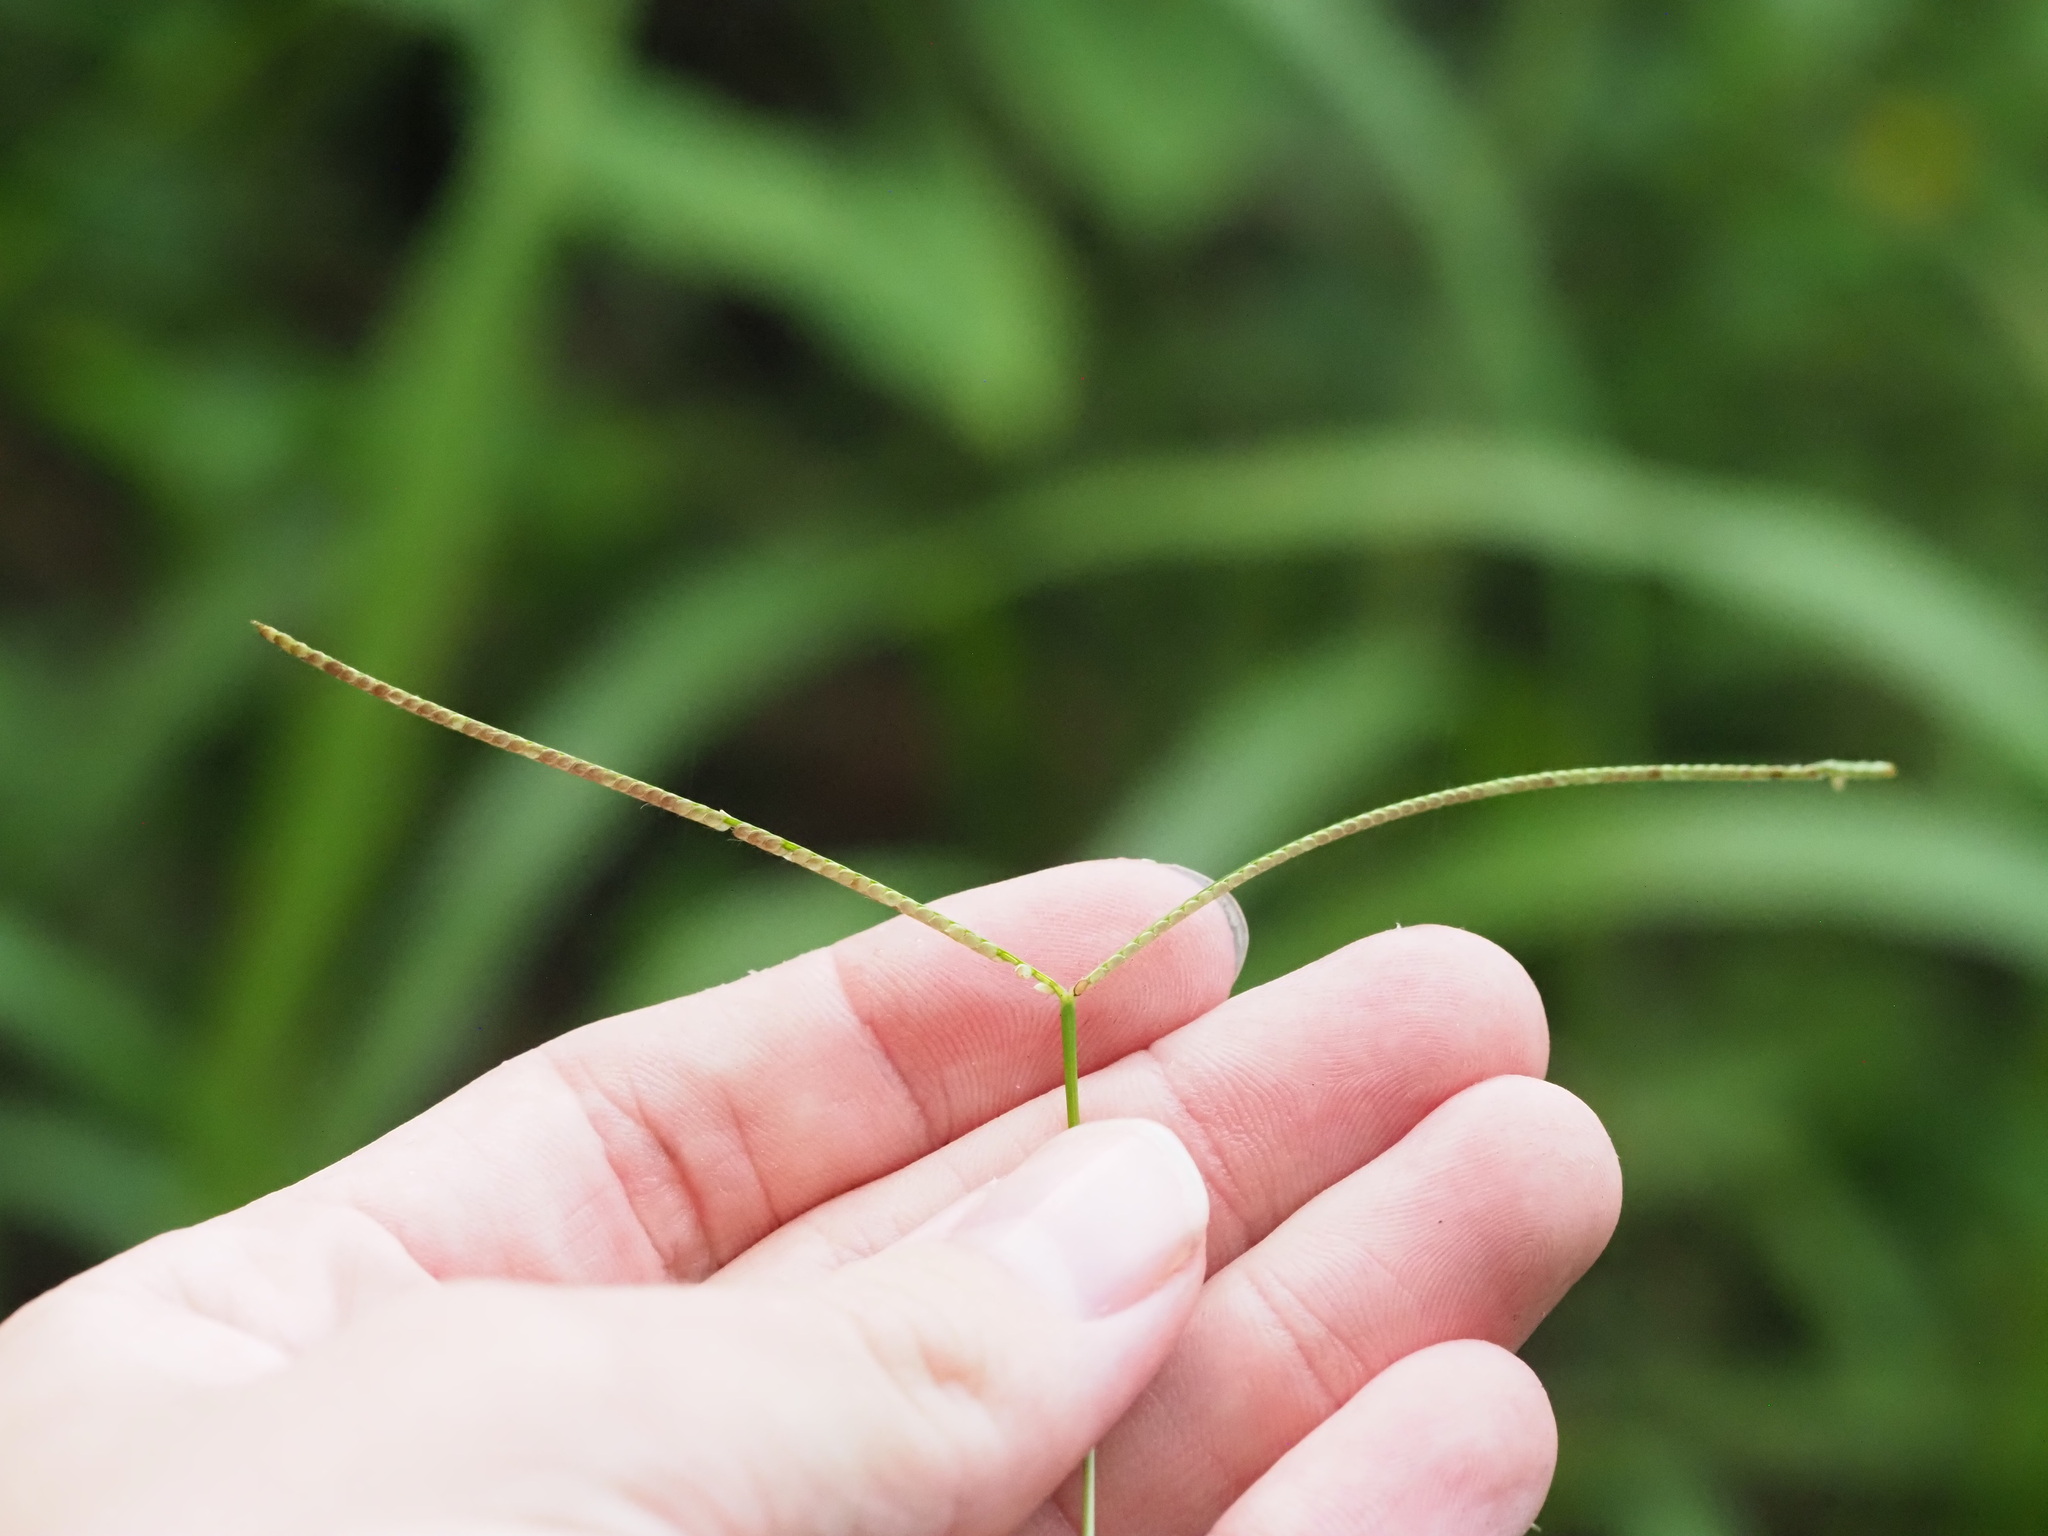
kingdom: Plantae
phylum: Tracheophyta
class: Liliopsida
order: Poales
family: Poaceae
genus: Paspalum
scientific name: Paspalum conjugatum
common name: Hilograss
